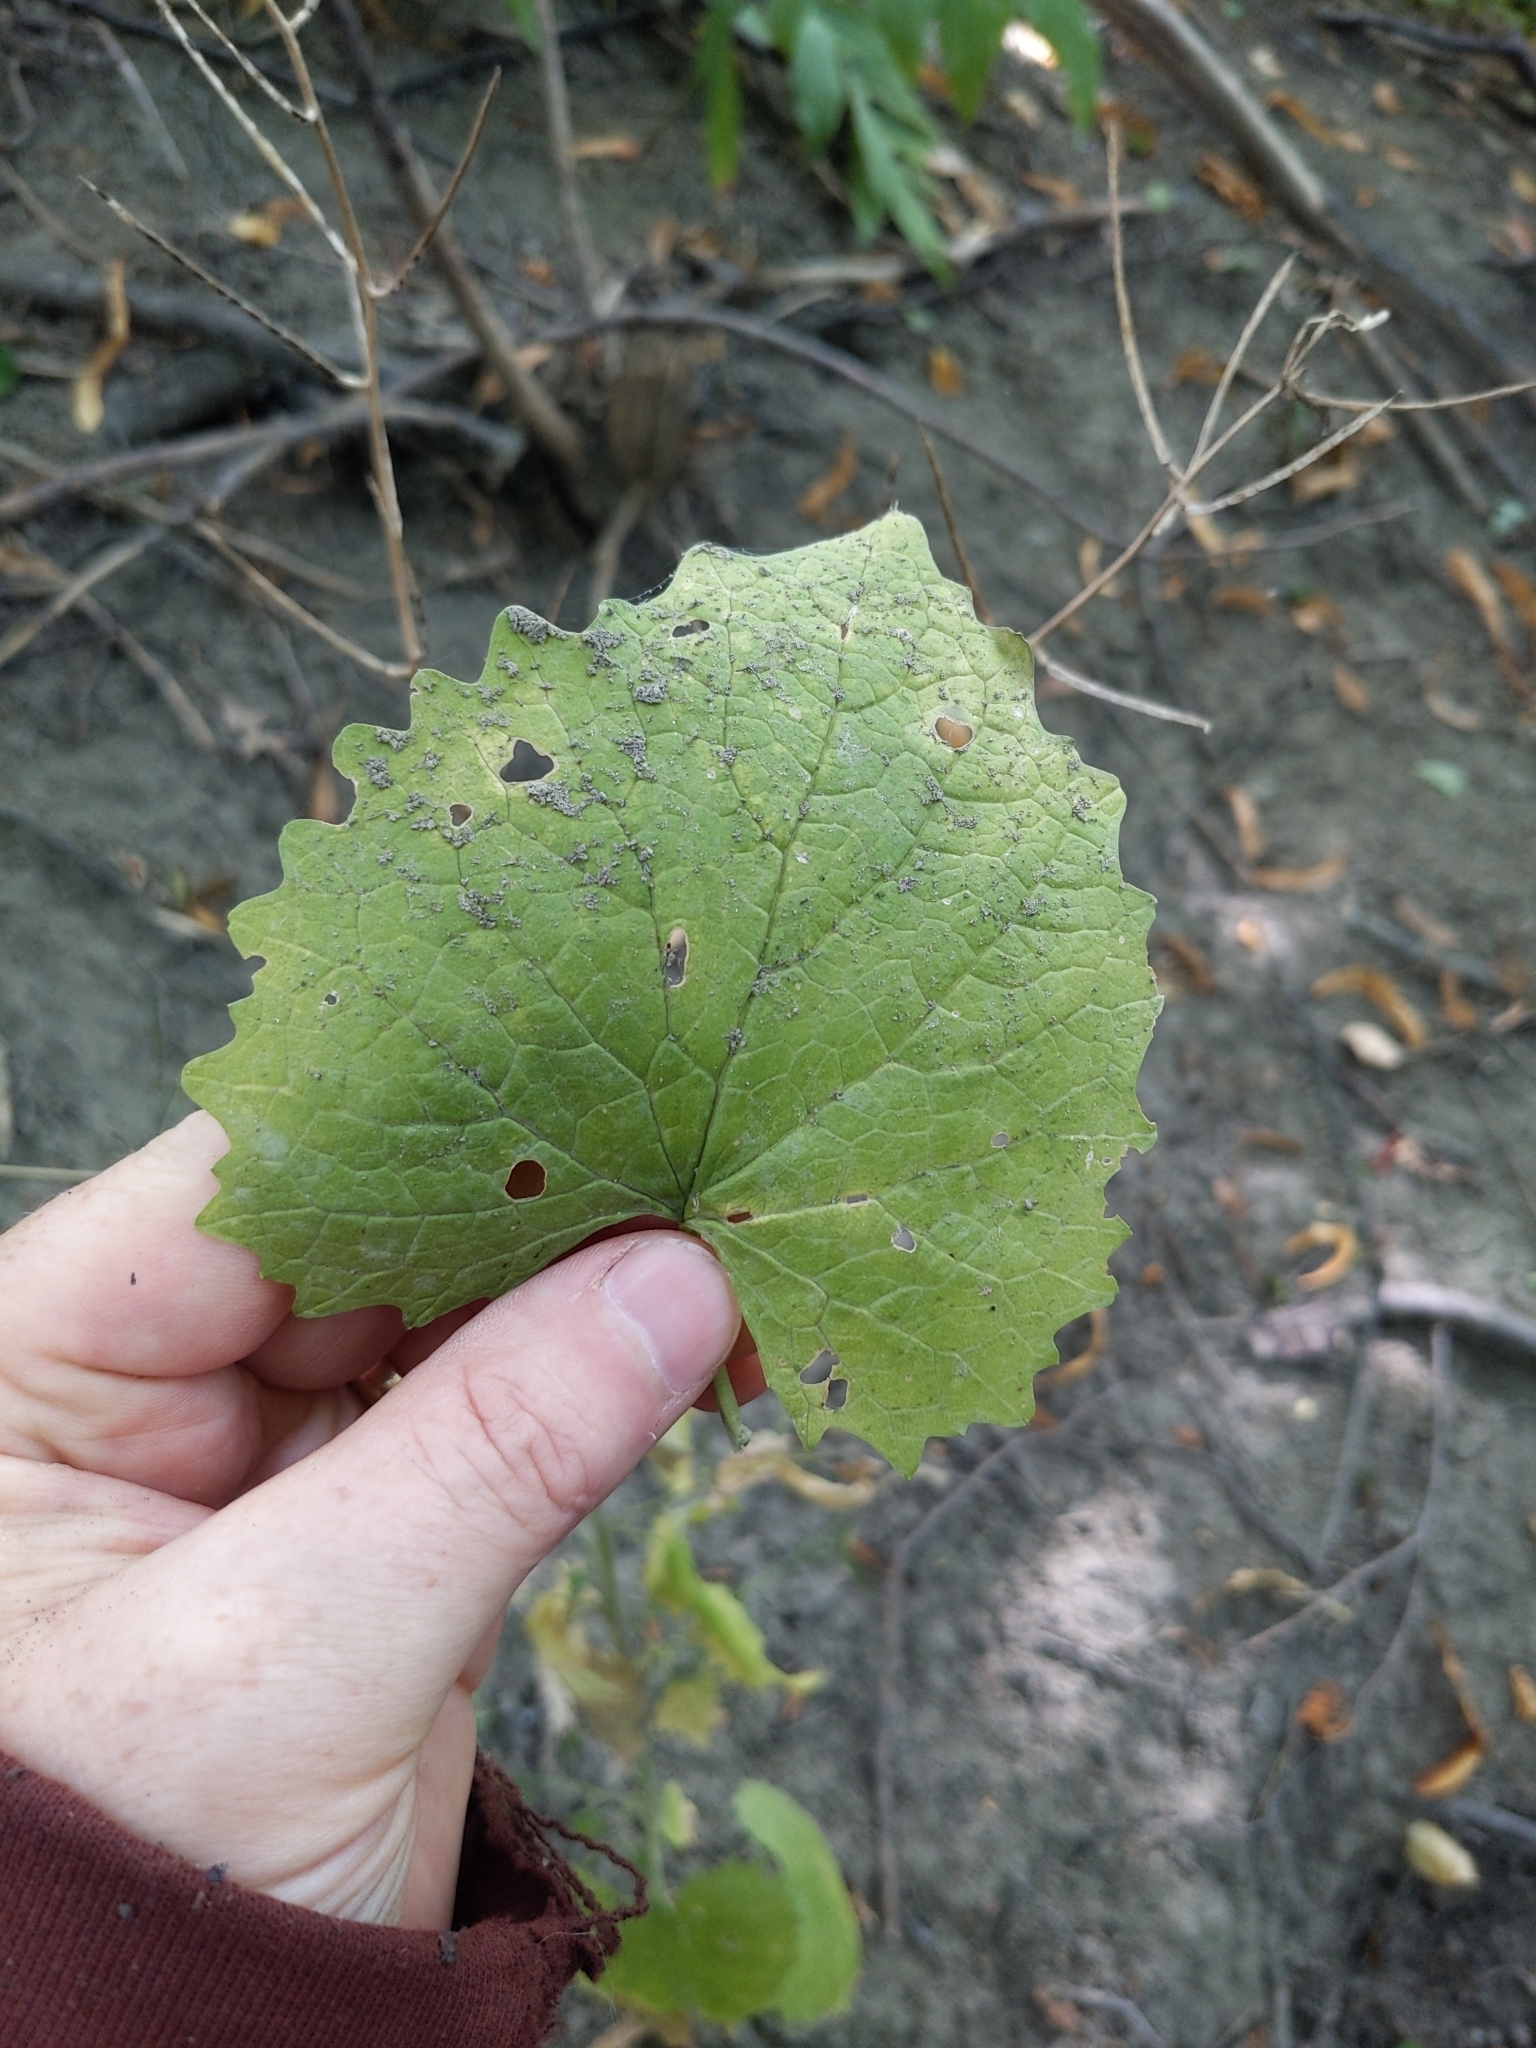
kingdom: Plantae
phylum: Tracheophyta
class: Magnoliopsida
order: Brassicales
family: Brassicaceae
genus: Alliaria
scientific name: Alliaria petiolata
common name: Garlic mustard
